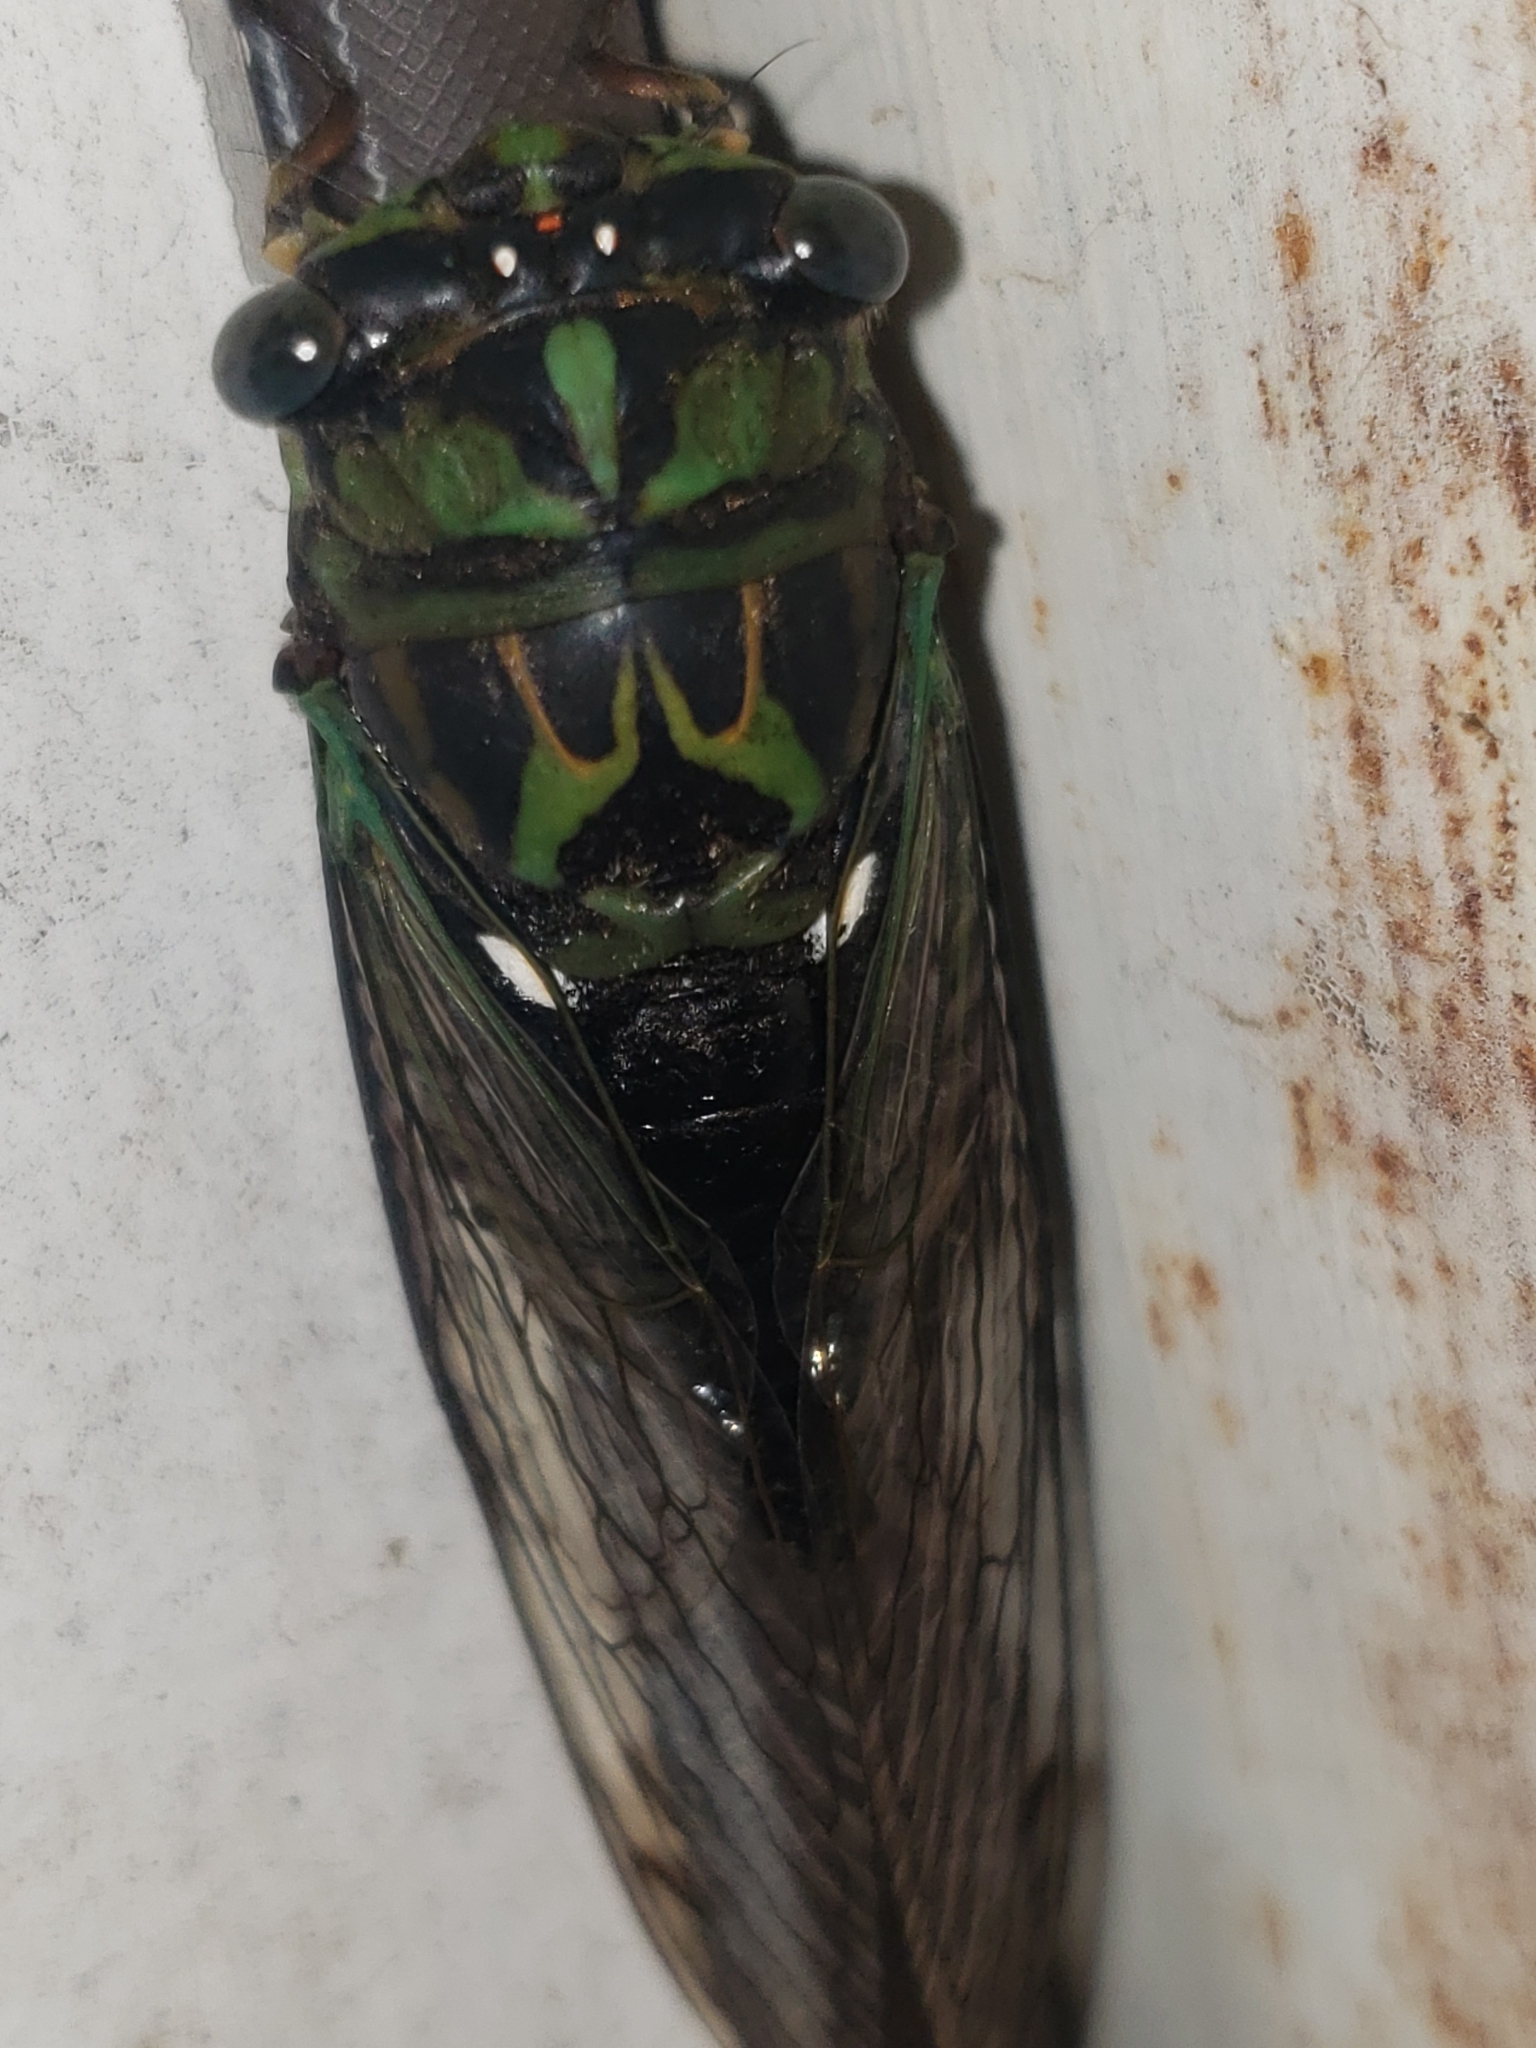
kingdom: Animalia
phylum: Arthropoda
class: Insecta
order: Hemiptera
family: Cicadidae
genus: Neotibicen
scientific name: Neotibicen robinsonianus
